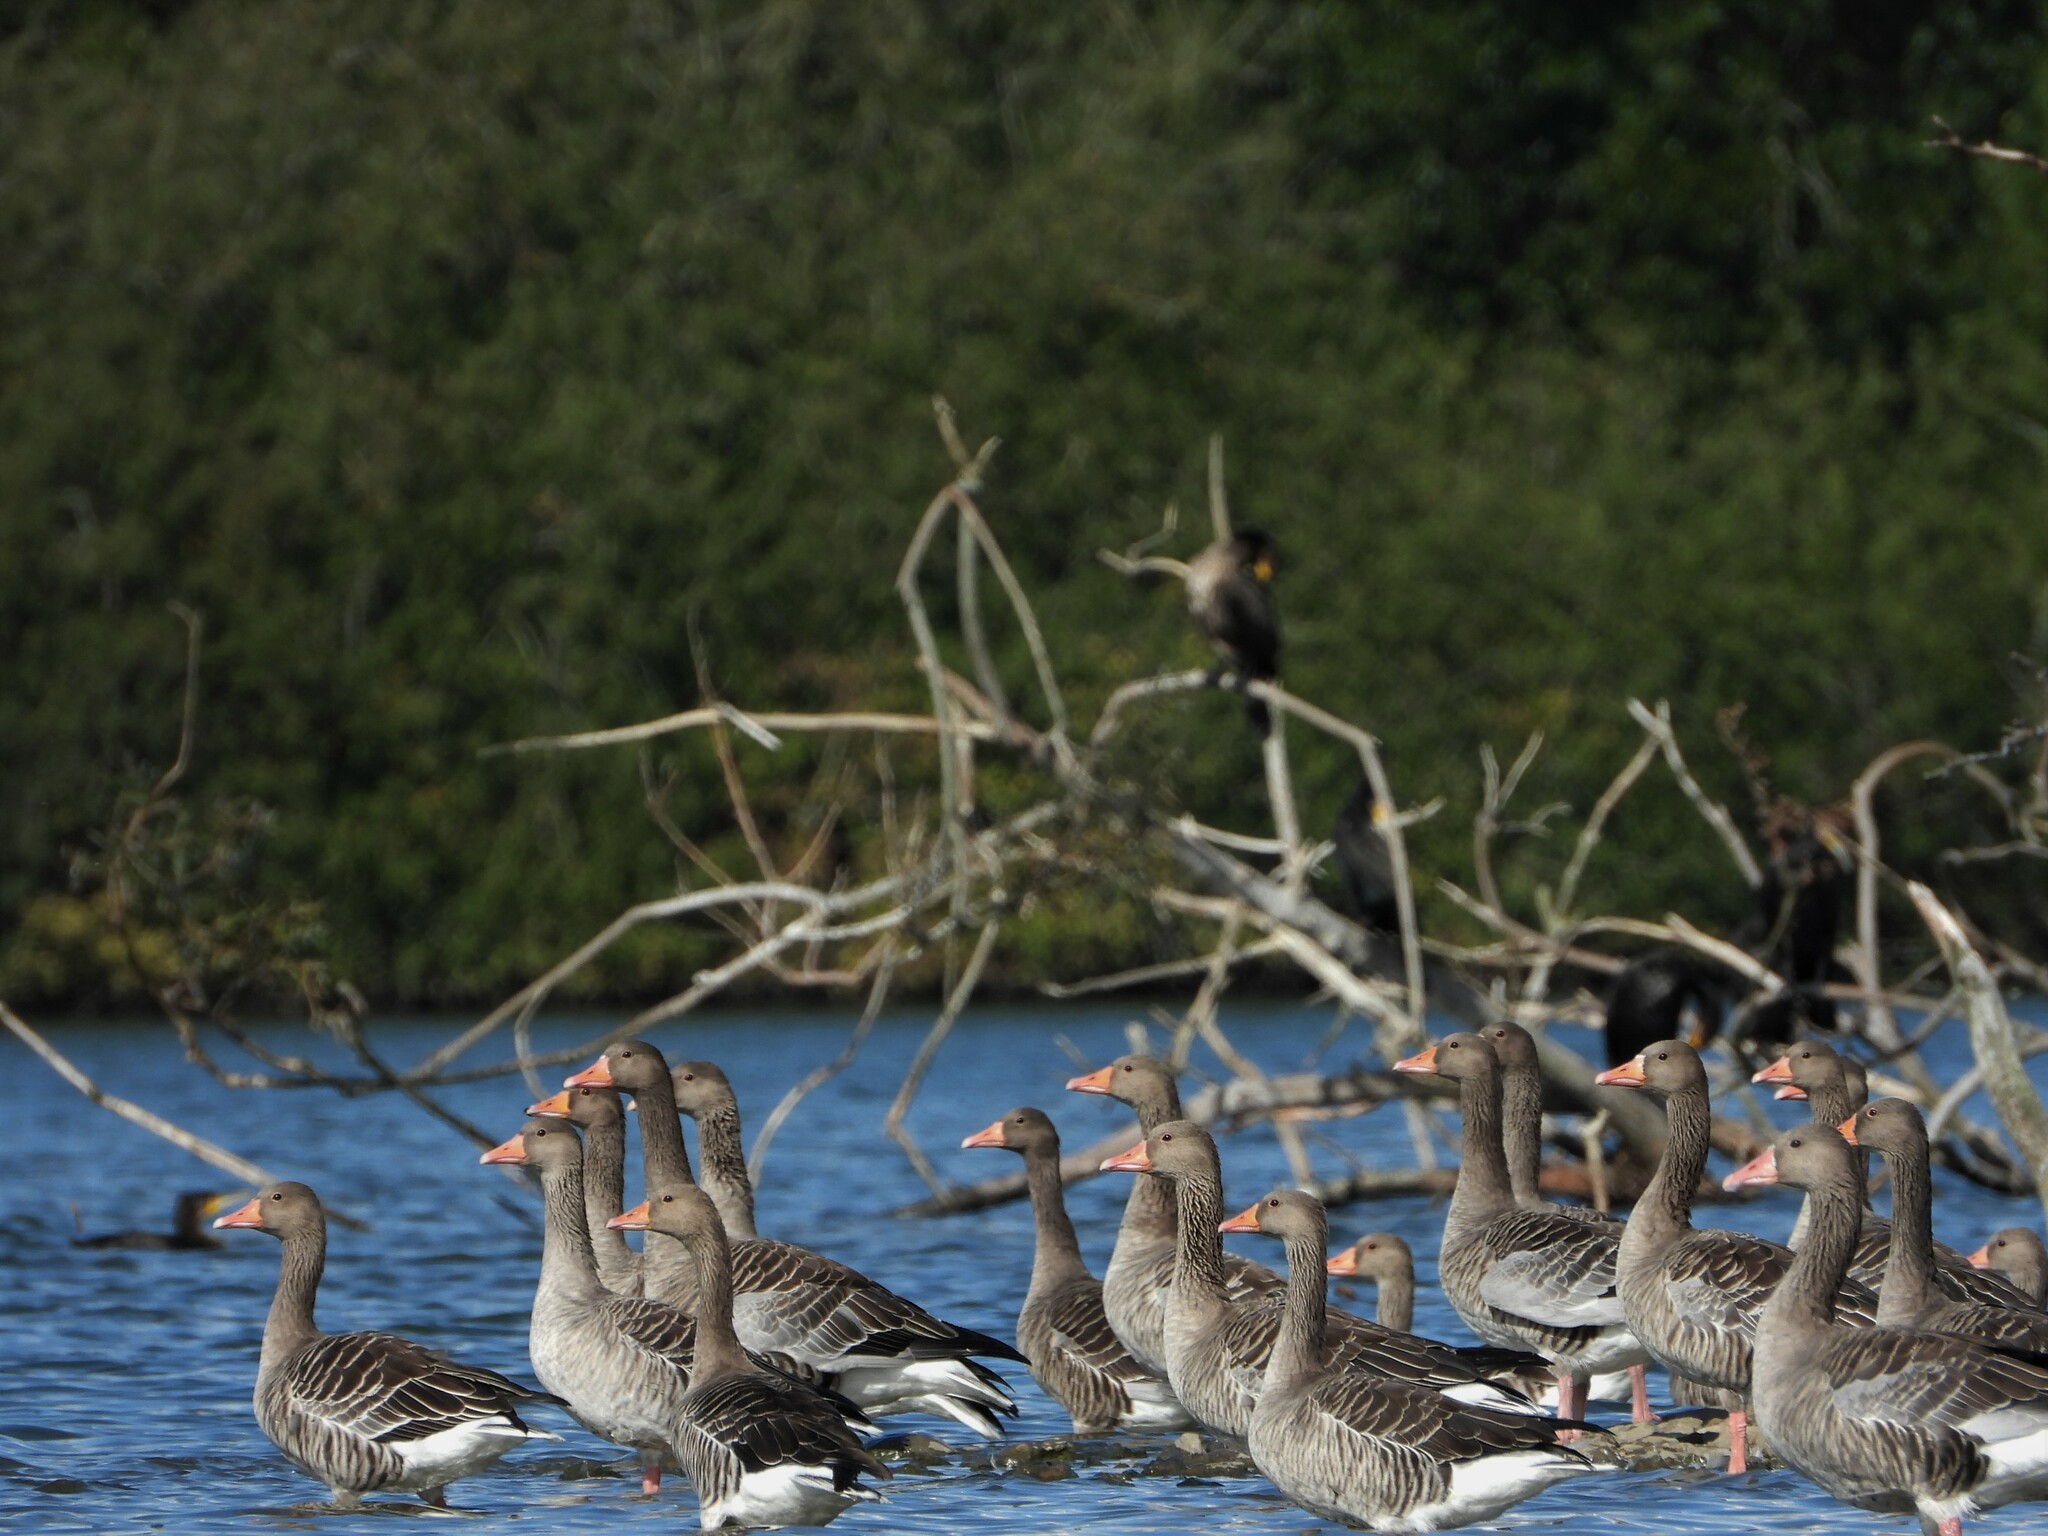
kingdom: Animalia
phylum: Chordata
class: Aves
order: Anseriformes
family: Anatidae
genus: Anser
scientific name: Anser anser
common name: Greylag goose
